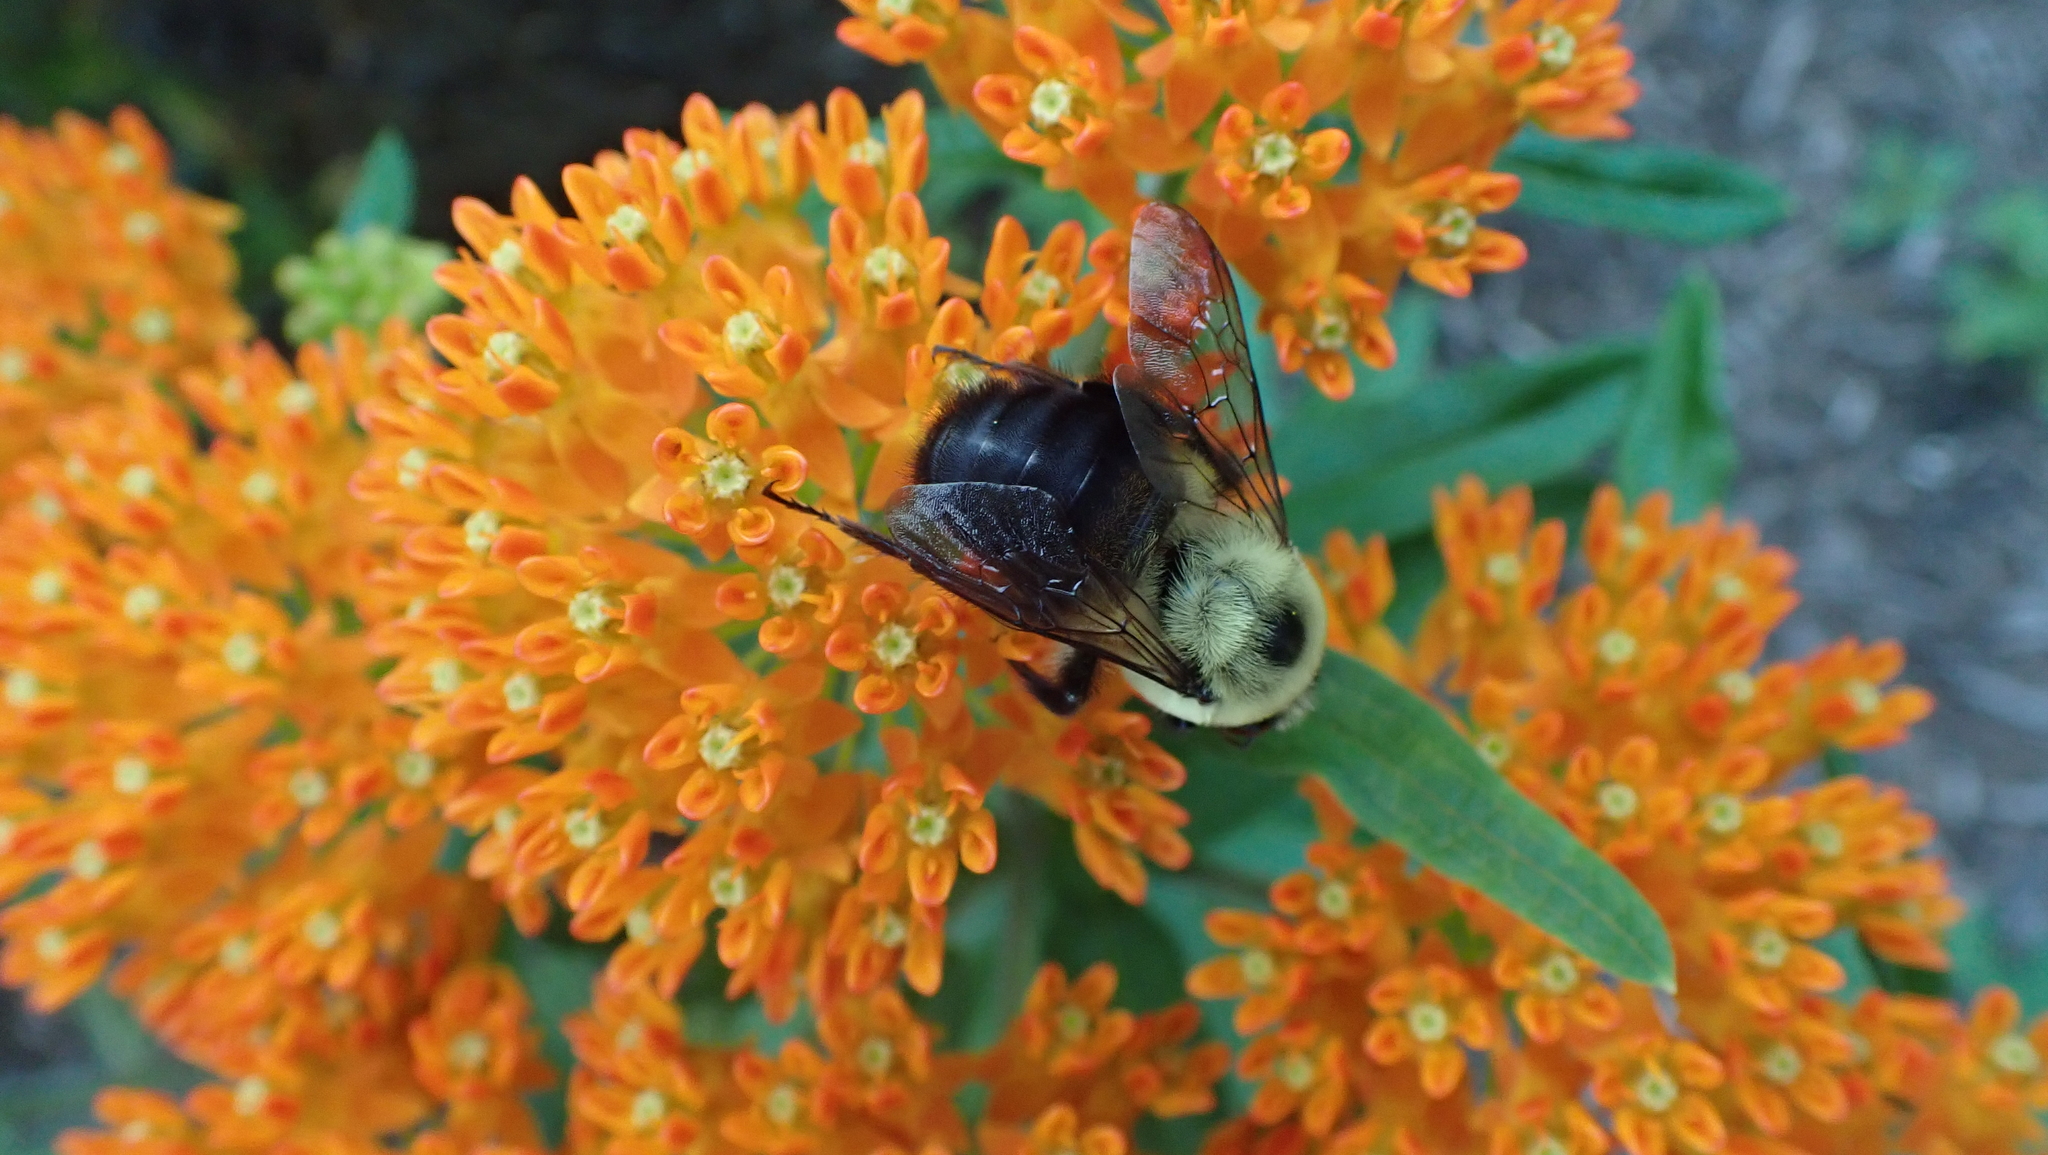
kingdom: Animalia
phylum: Arthropoda
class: Insecta
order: Hymenoptera
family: Apidae
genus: Bombus
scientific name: Bombus griseocollis
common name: Brown-belted bumble bee
